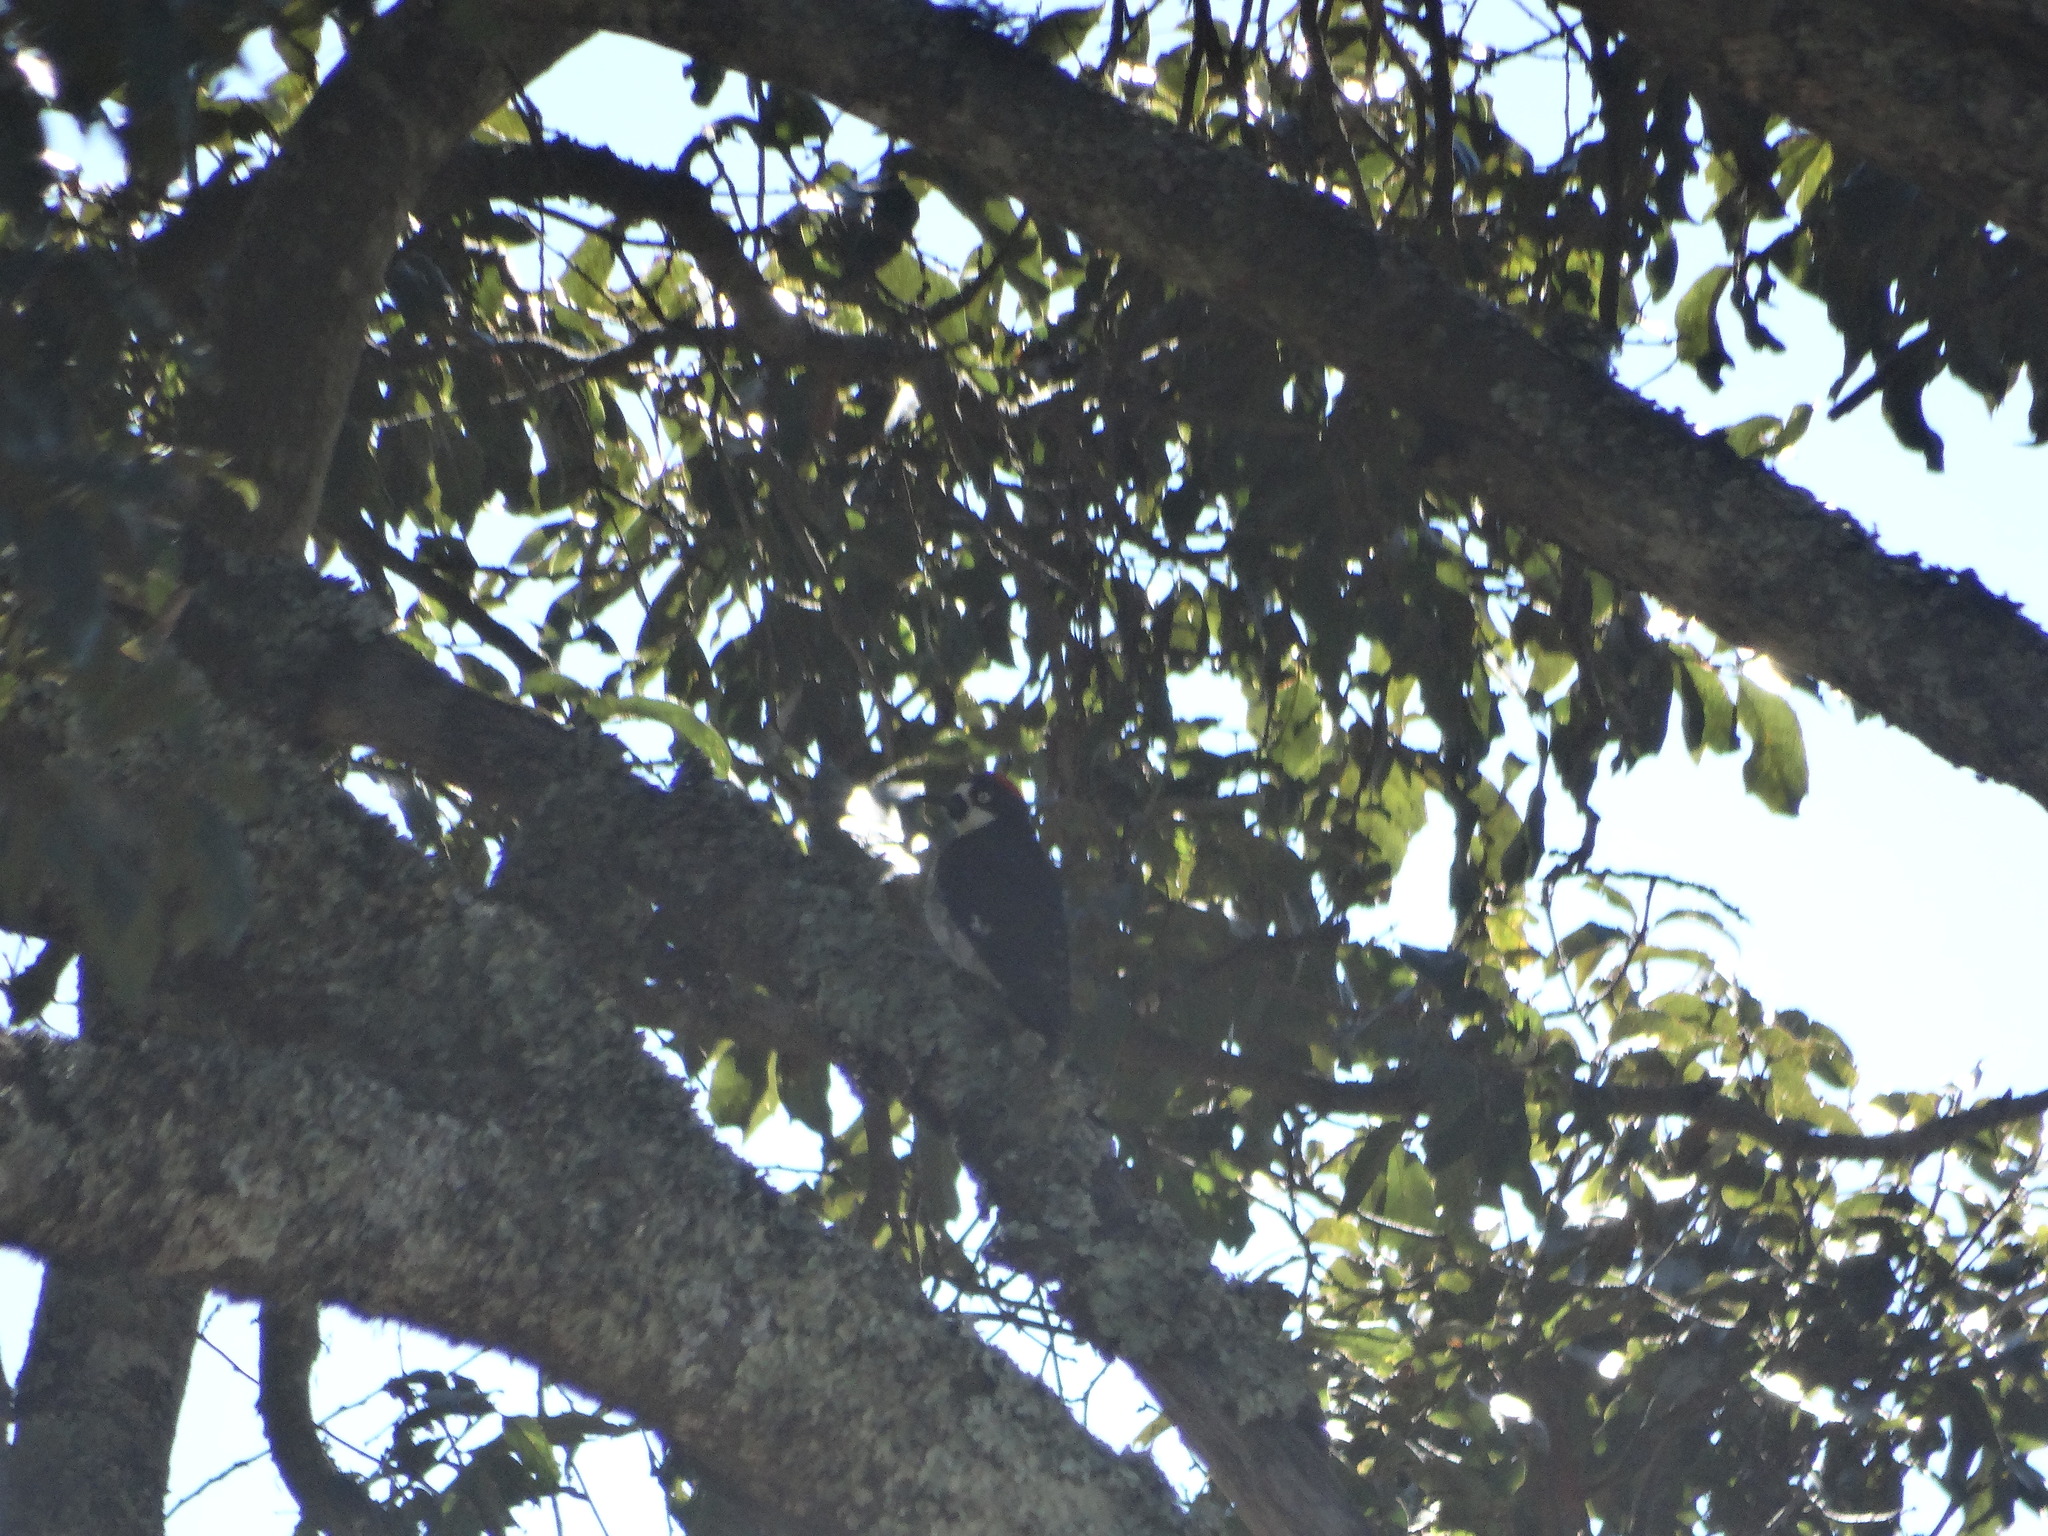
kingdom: Animalia
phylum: Chordata
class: Aves
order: Piciformes
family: Picidae
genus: Melanerpes
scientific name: Melanerpes formicivorus
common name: Acorn woodpecker
